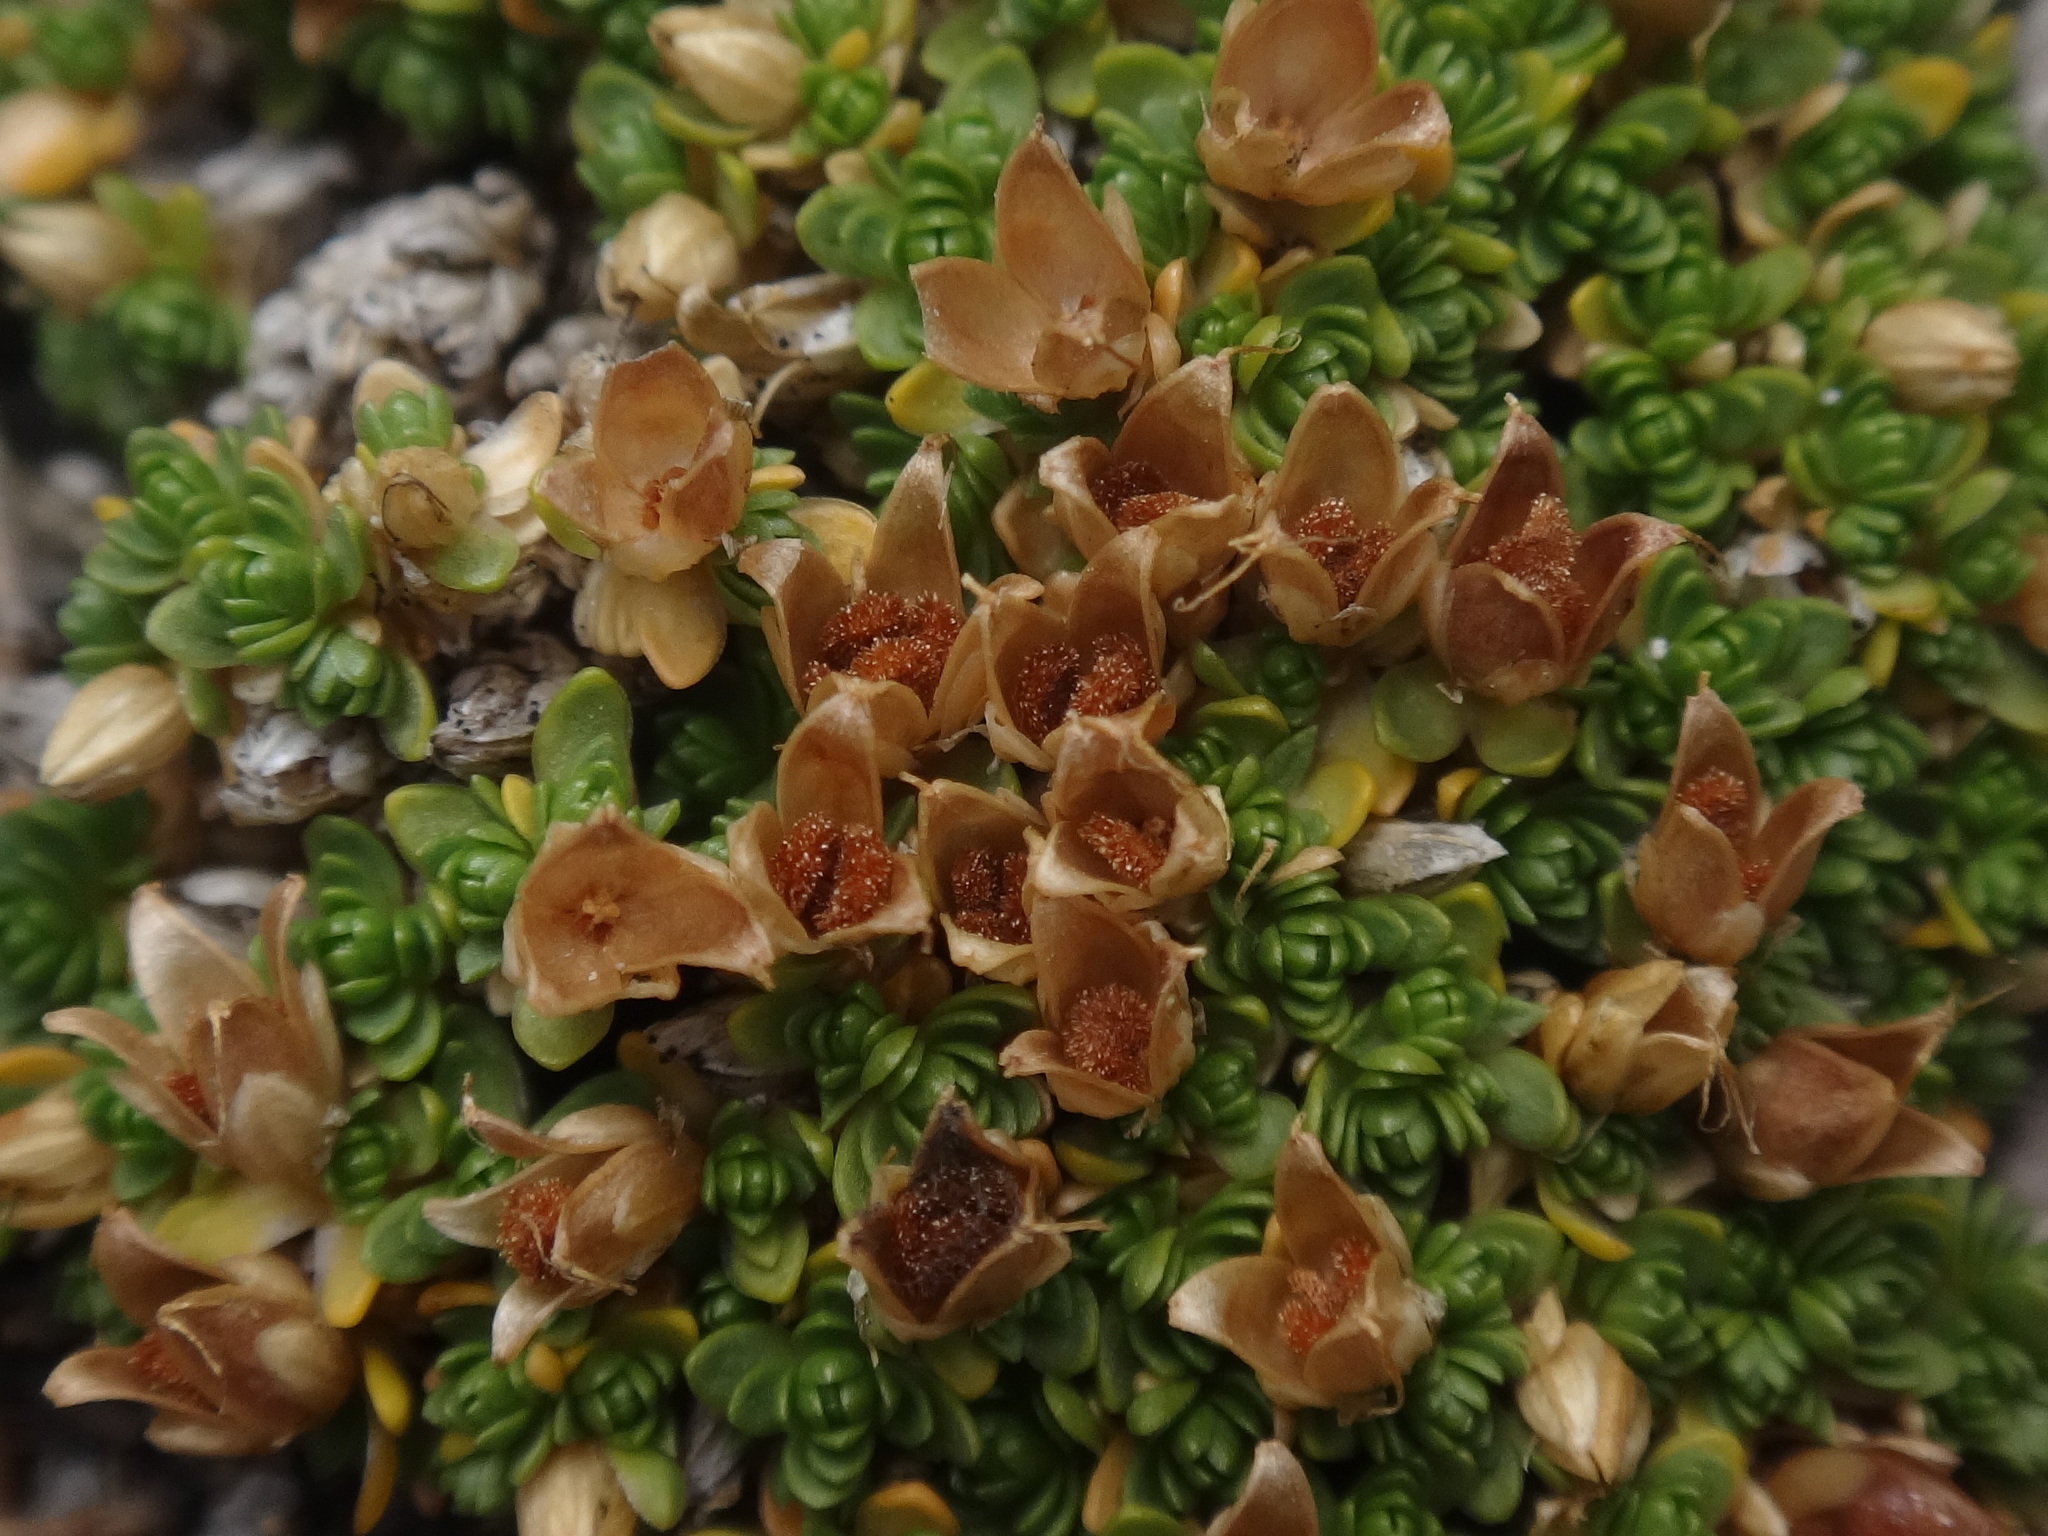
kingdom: Plantae
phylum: Tracheophyta
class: Magnoliopsida
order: Caryophyllales
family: Caryophyllaceae
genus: Facchinia
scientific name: Facchinia cherlerioides
